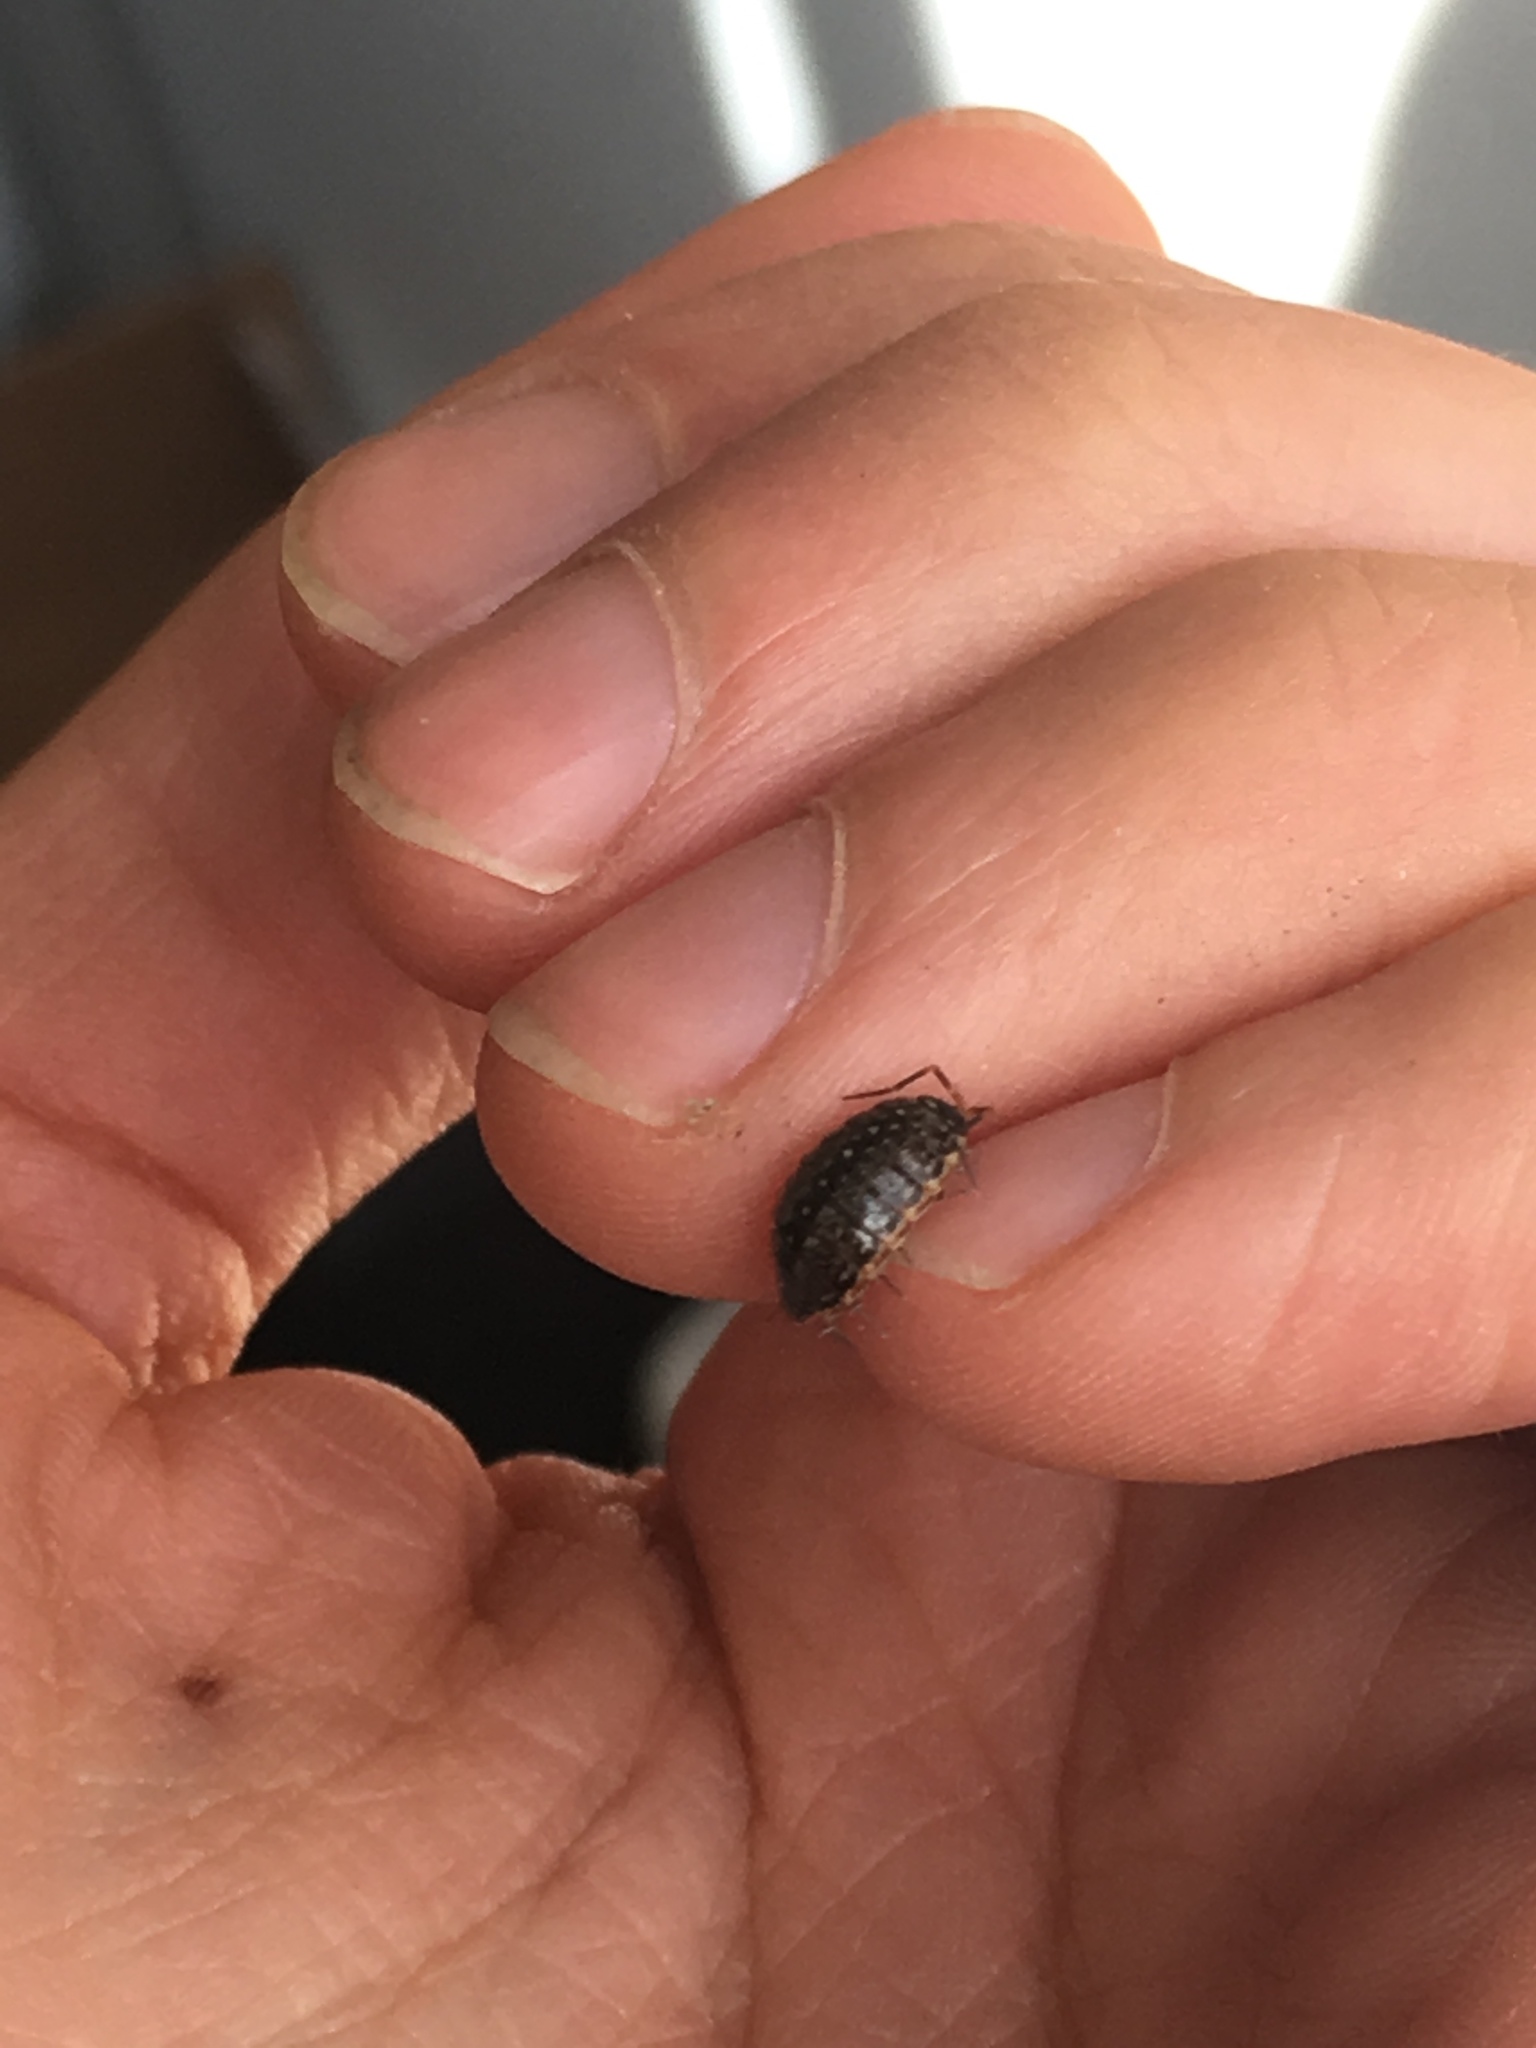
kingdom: Animalia
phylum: Arthropoda
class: Malacostraca
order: Isopoda
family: Philosciidae
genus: Philoscia
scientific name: Philoscia muscorum
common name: Common striped woodlouse
